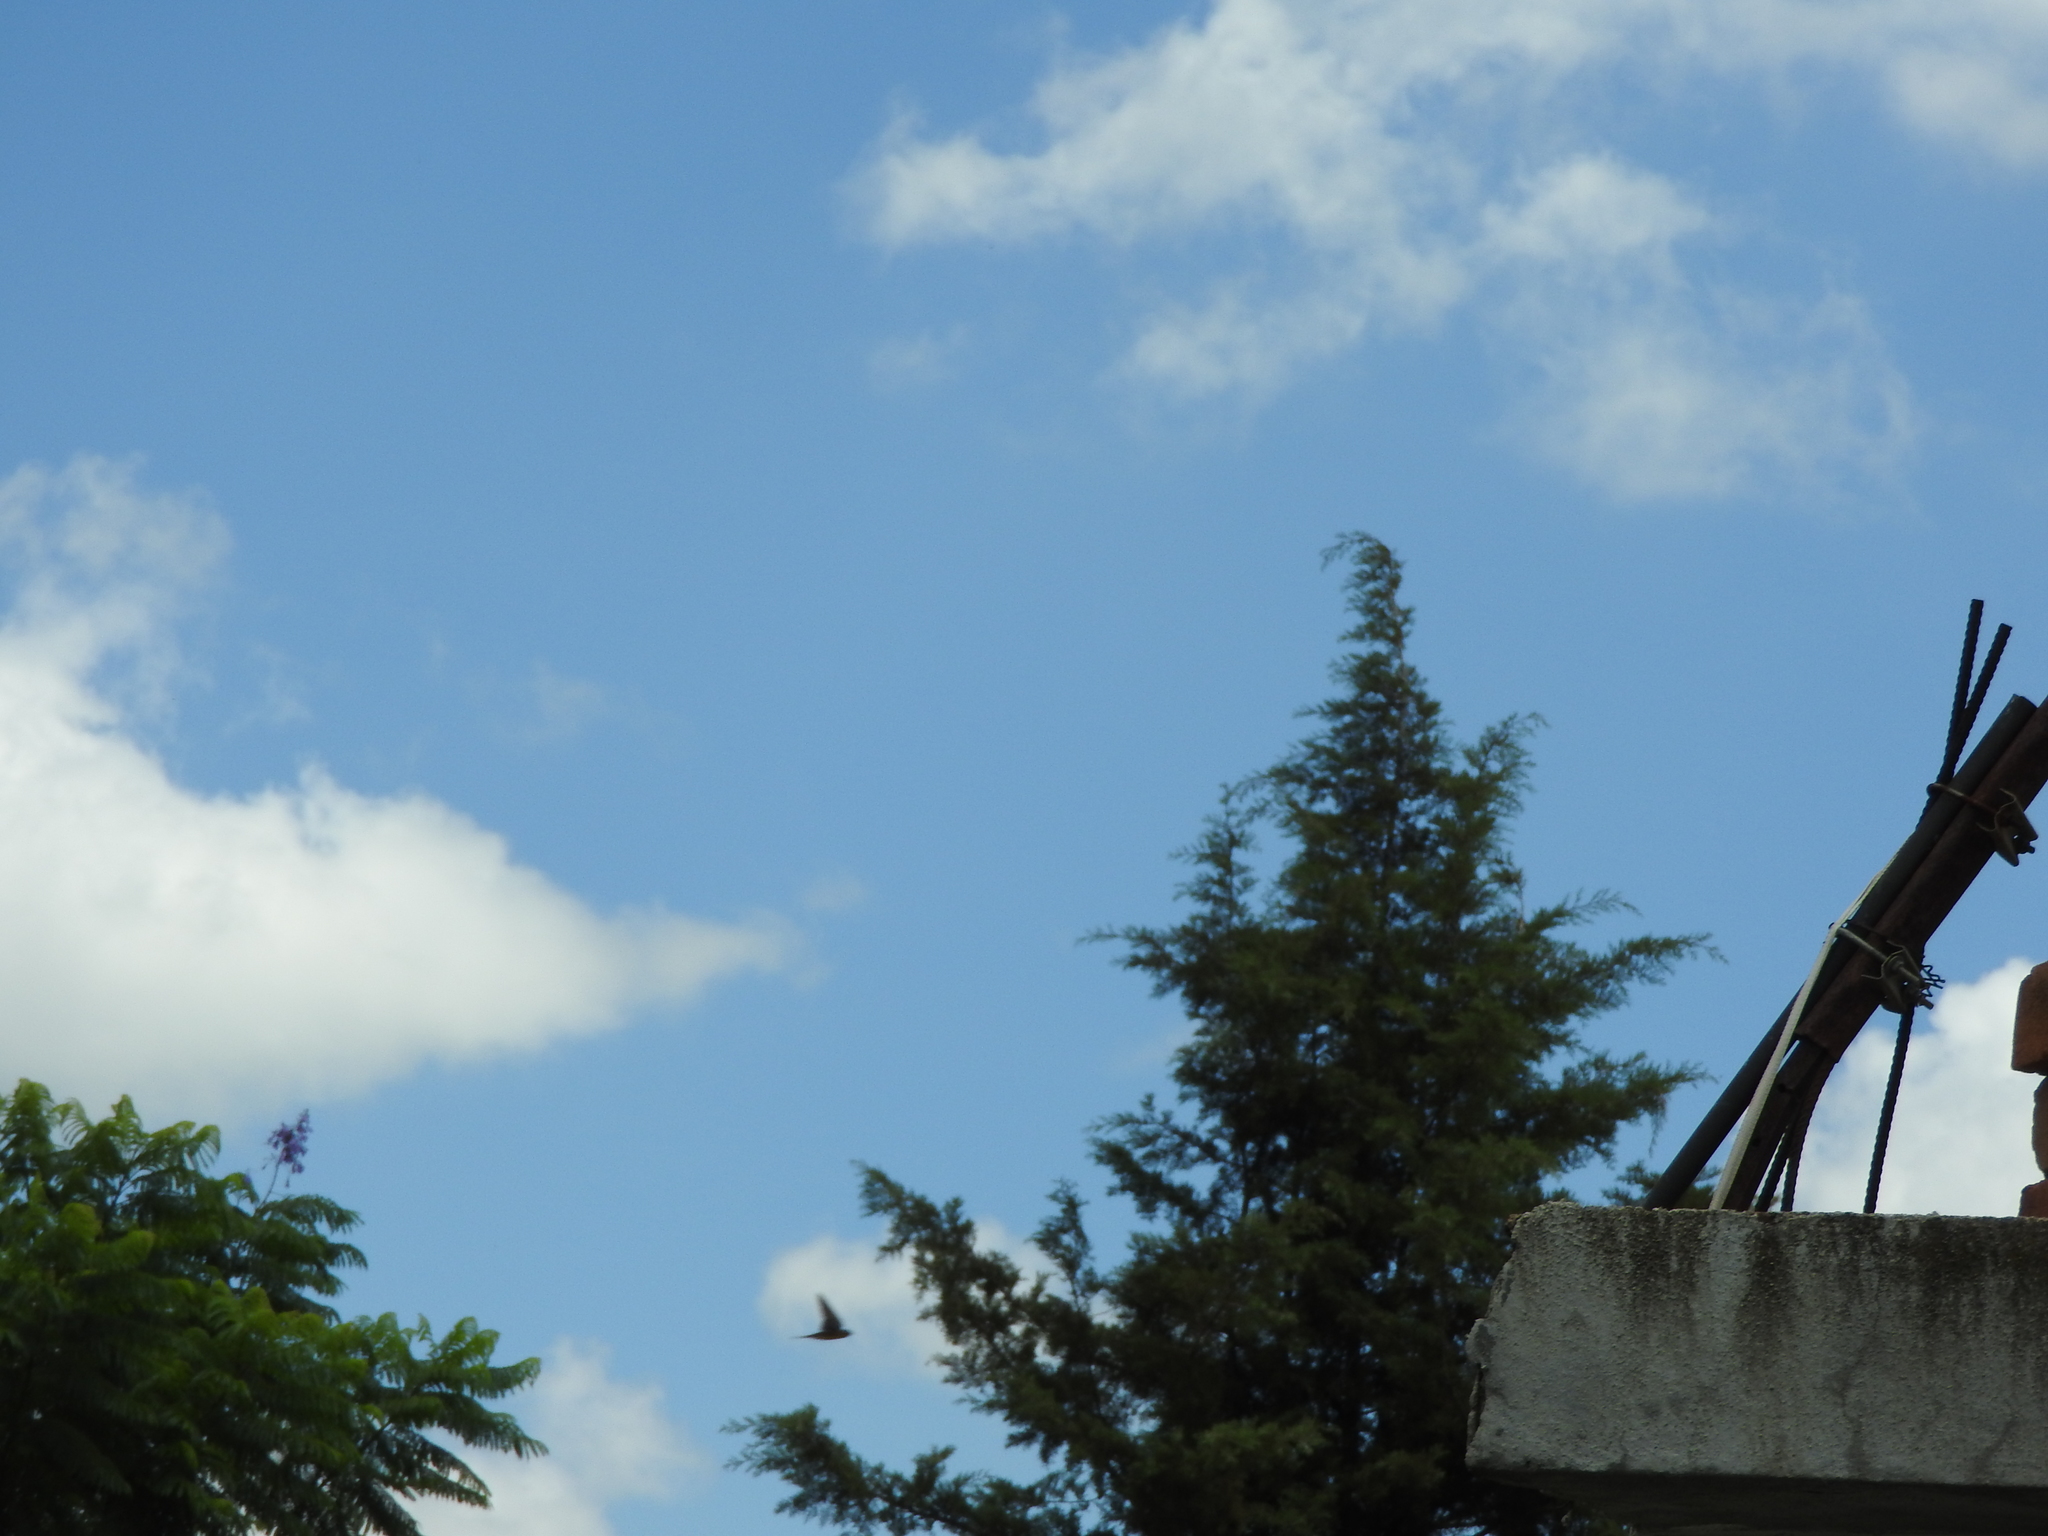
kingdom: Animalia
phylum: Chordata
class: Aves
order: Passeriformes
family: Hirundinidae
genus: Hirundo
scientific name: Hirundo rustica
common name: Barn swallow
